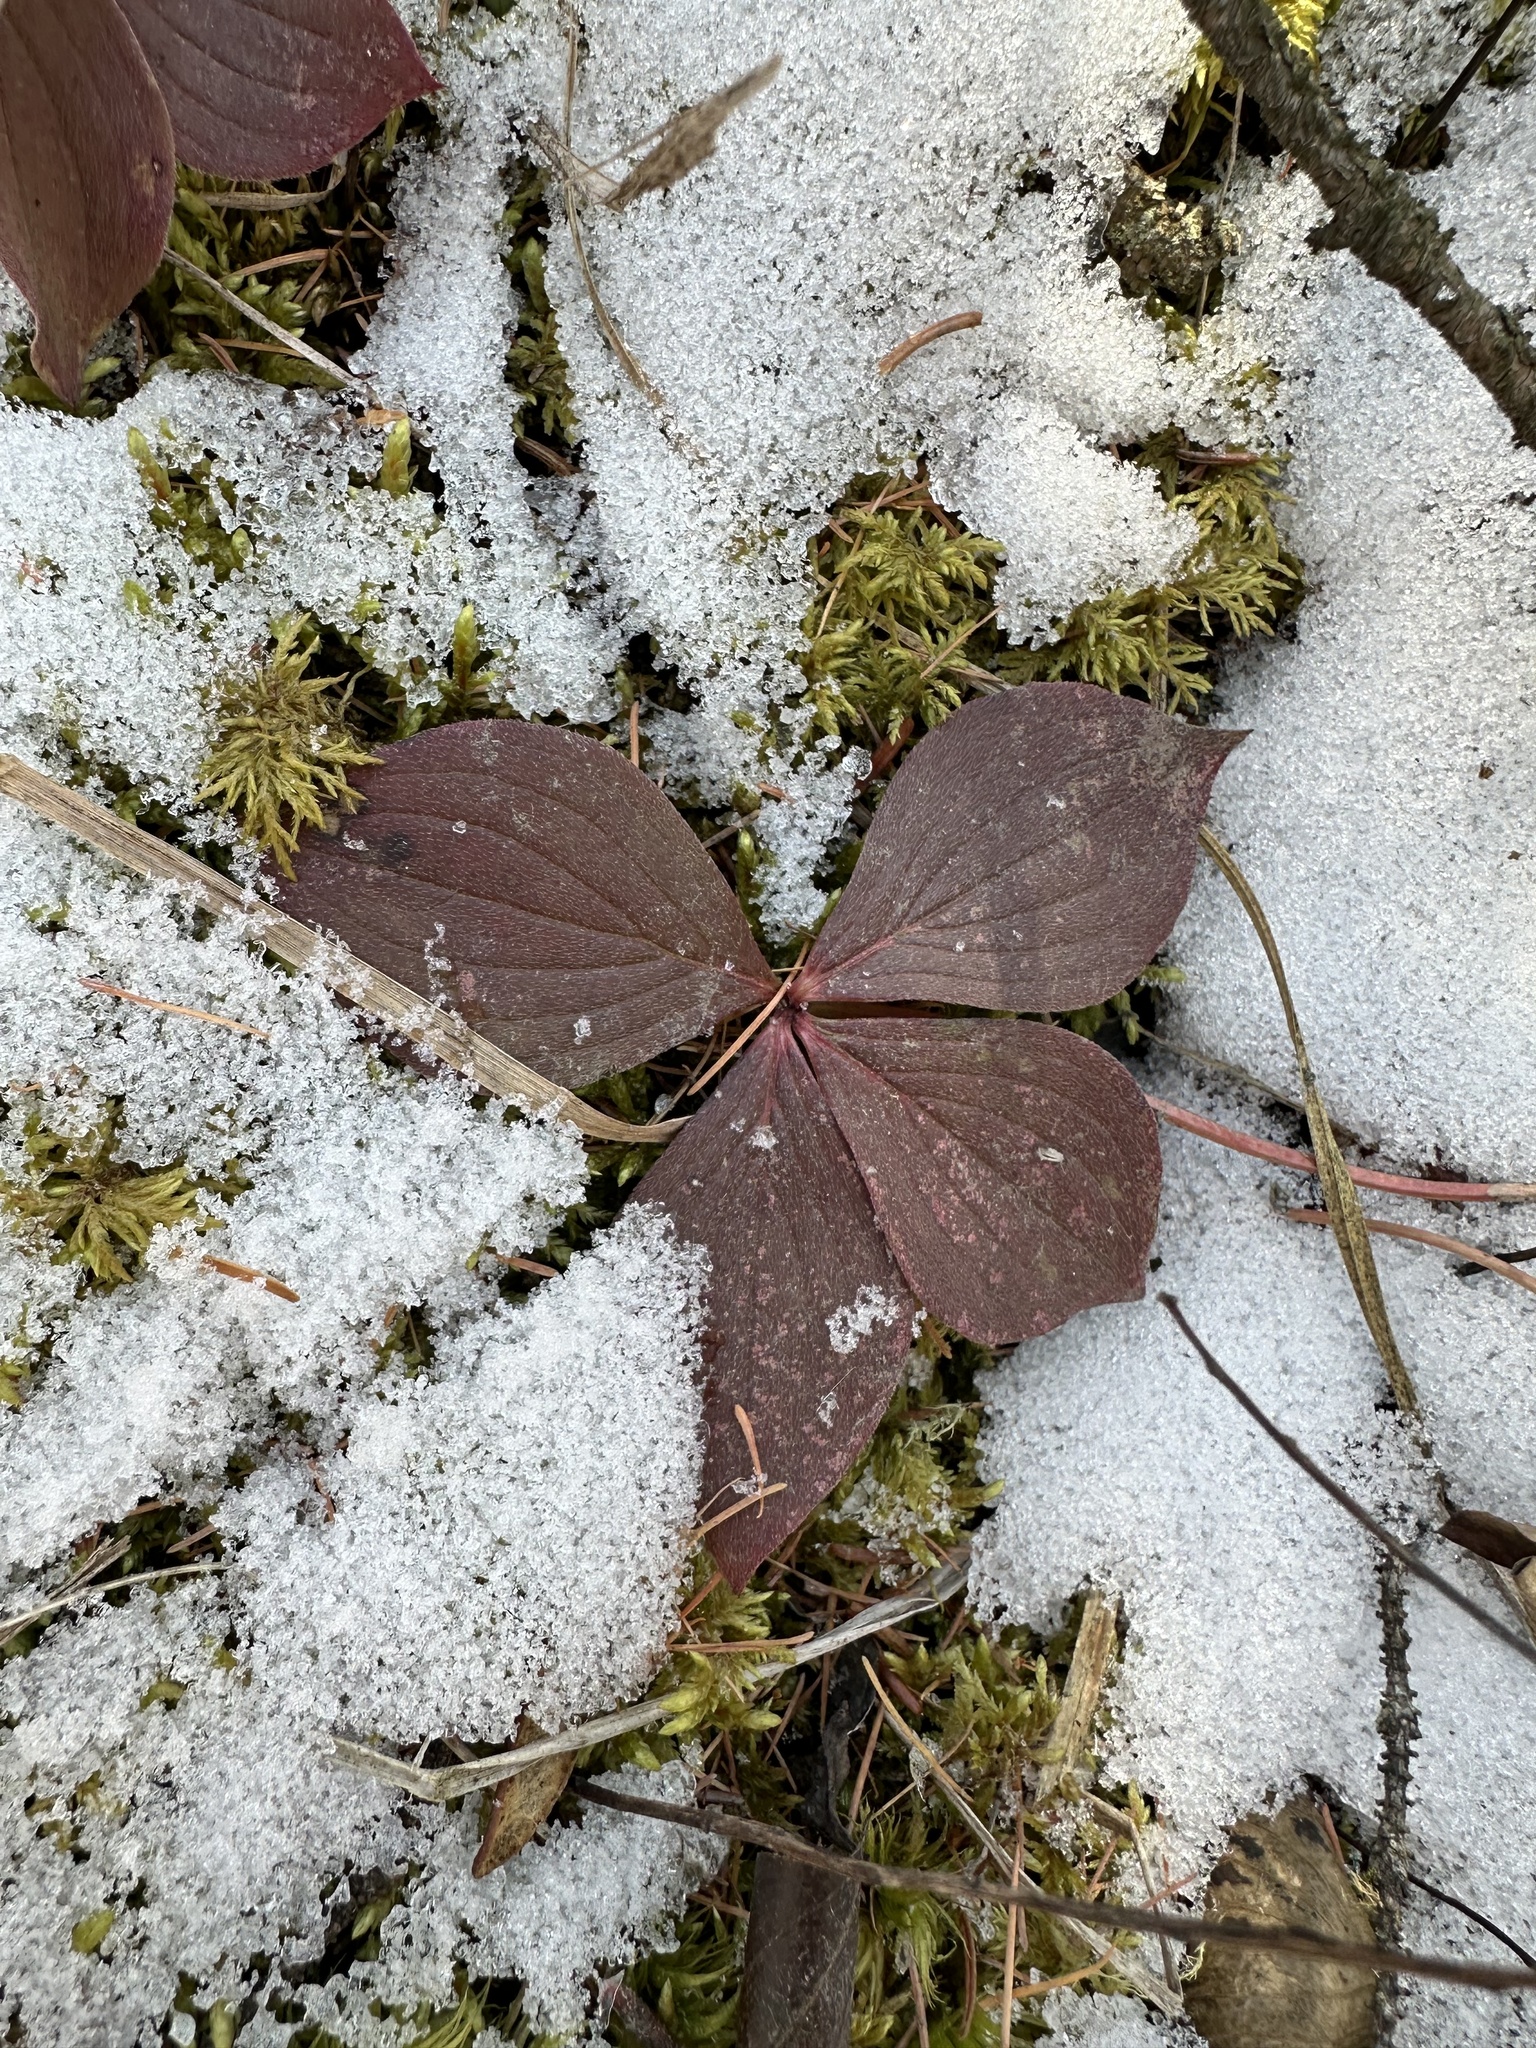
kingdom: Plantae
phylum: Tracheophyta
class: Magnoliopsida
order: Cornales
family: Cornaceae
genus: Cornus
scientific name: Cornus canadensis
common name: Creeping dogwood
